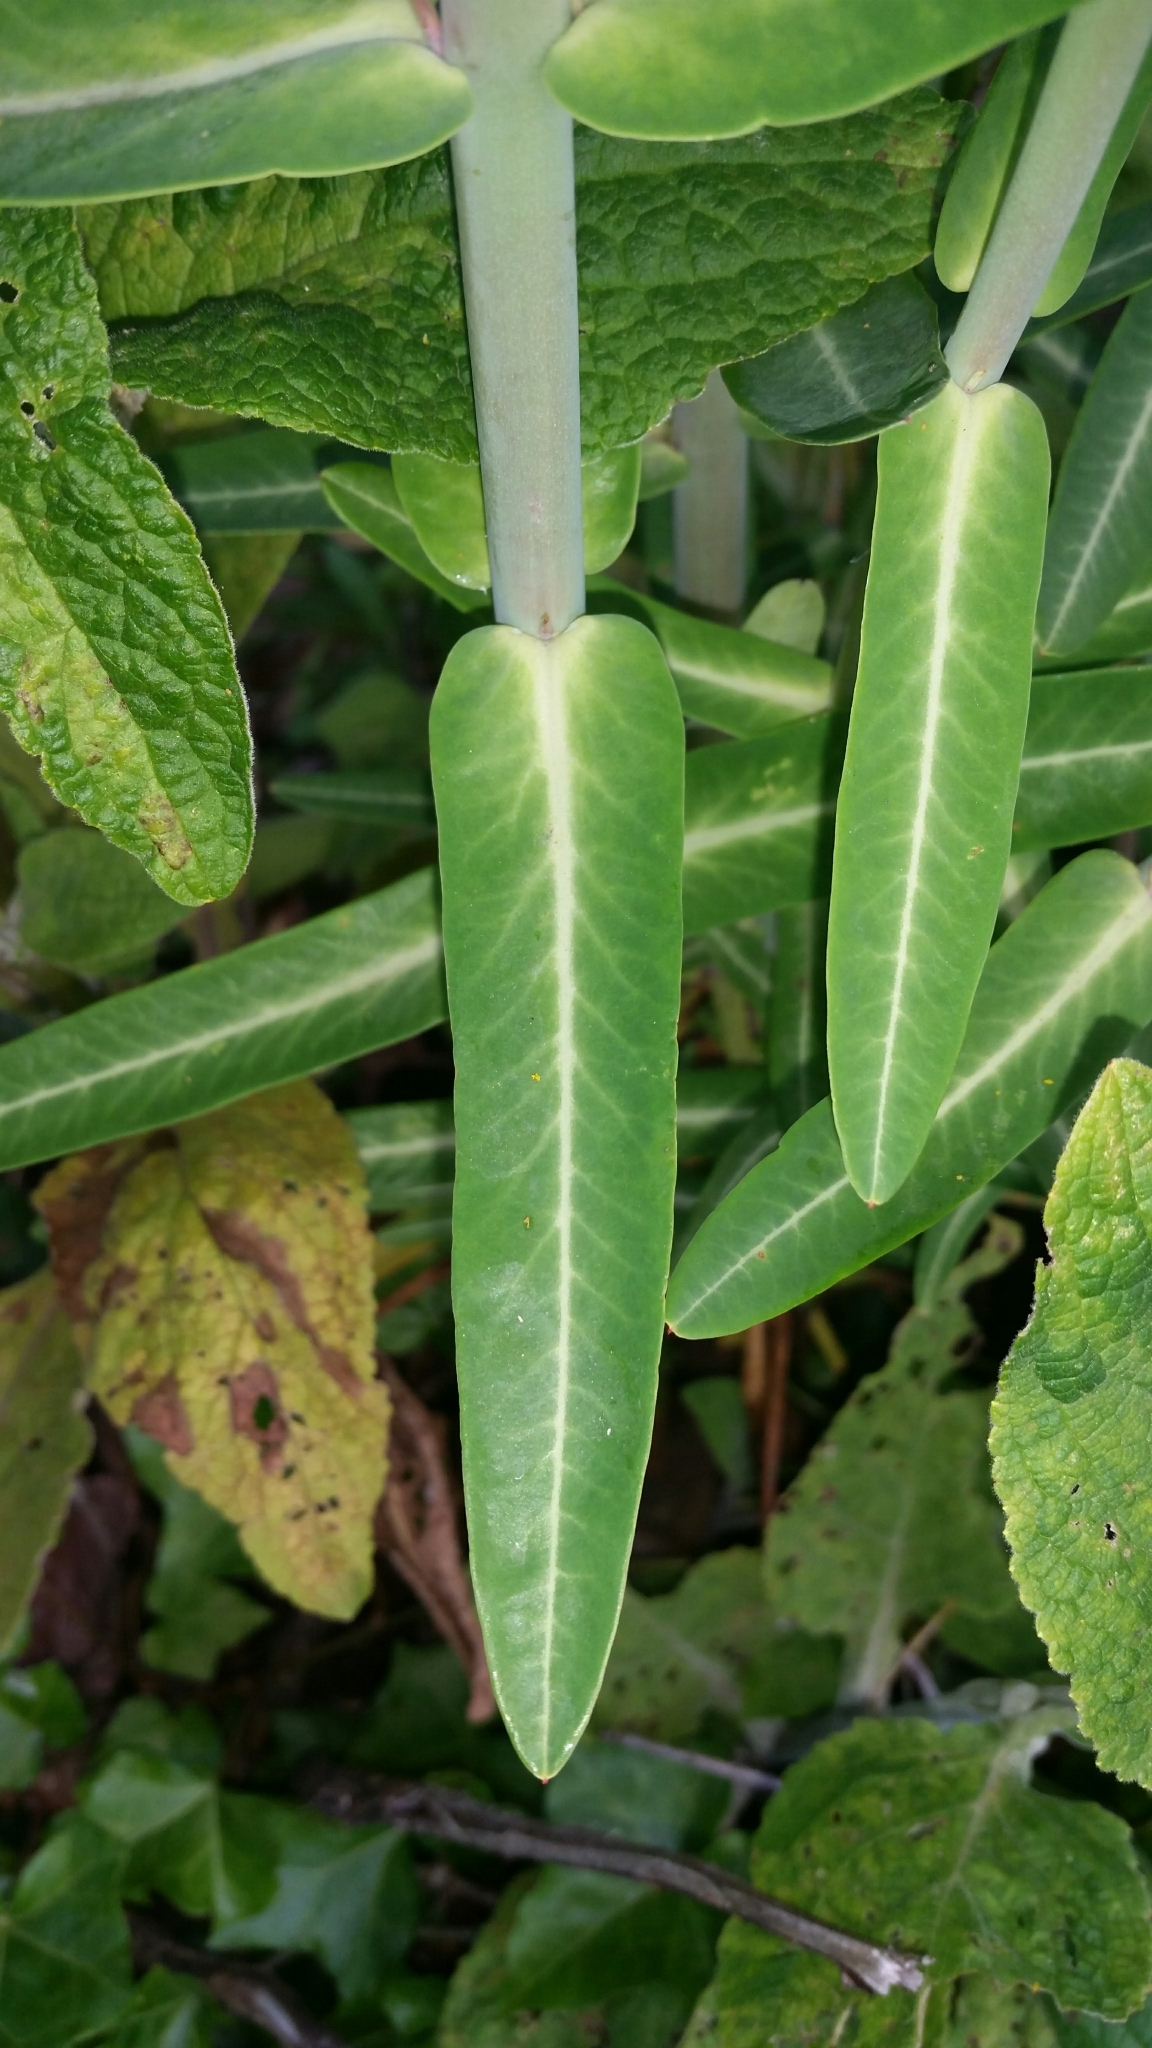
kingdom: Plantae
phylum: Tracheophyta
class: Magnoliopsida
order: Malpighiales
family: Euphorbiaceae
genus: Euphorbia
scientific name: Euphorbia lathyris
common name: Caper spurge
